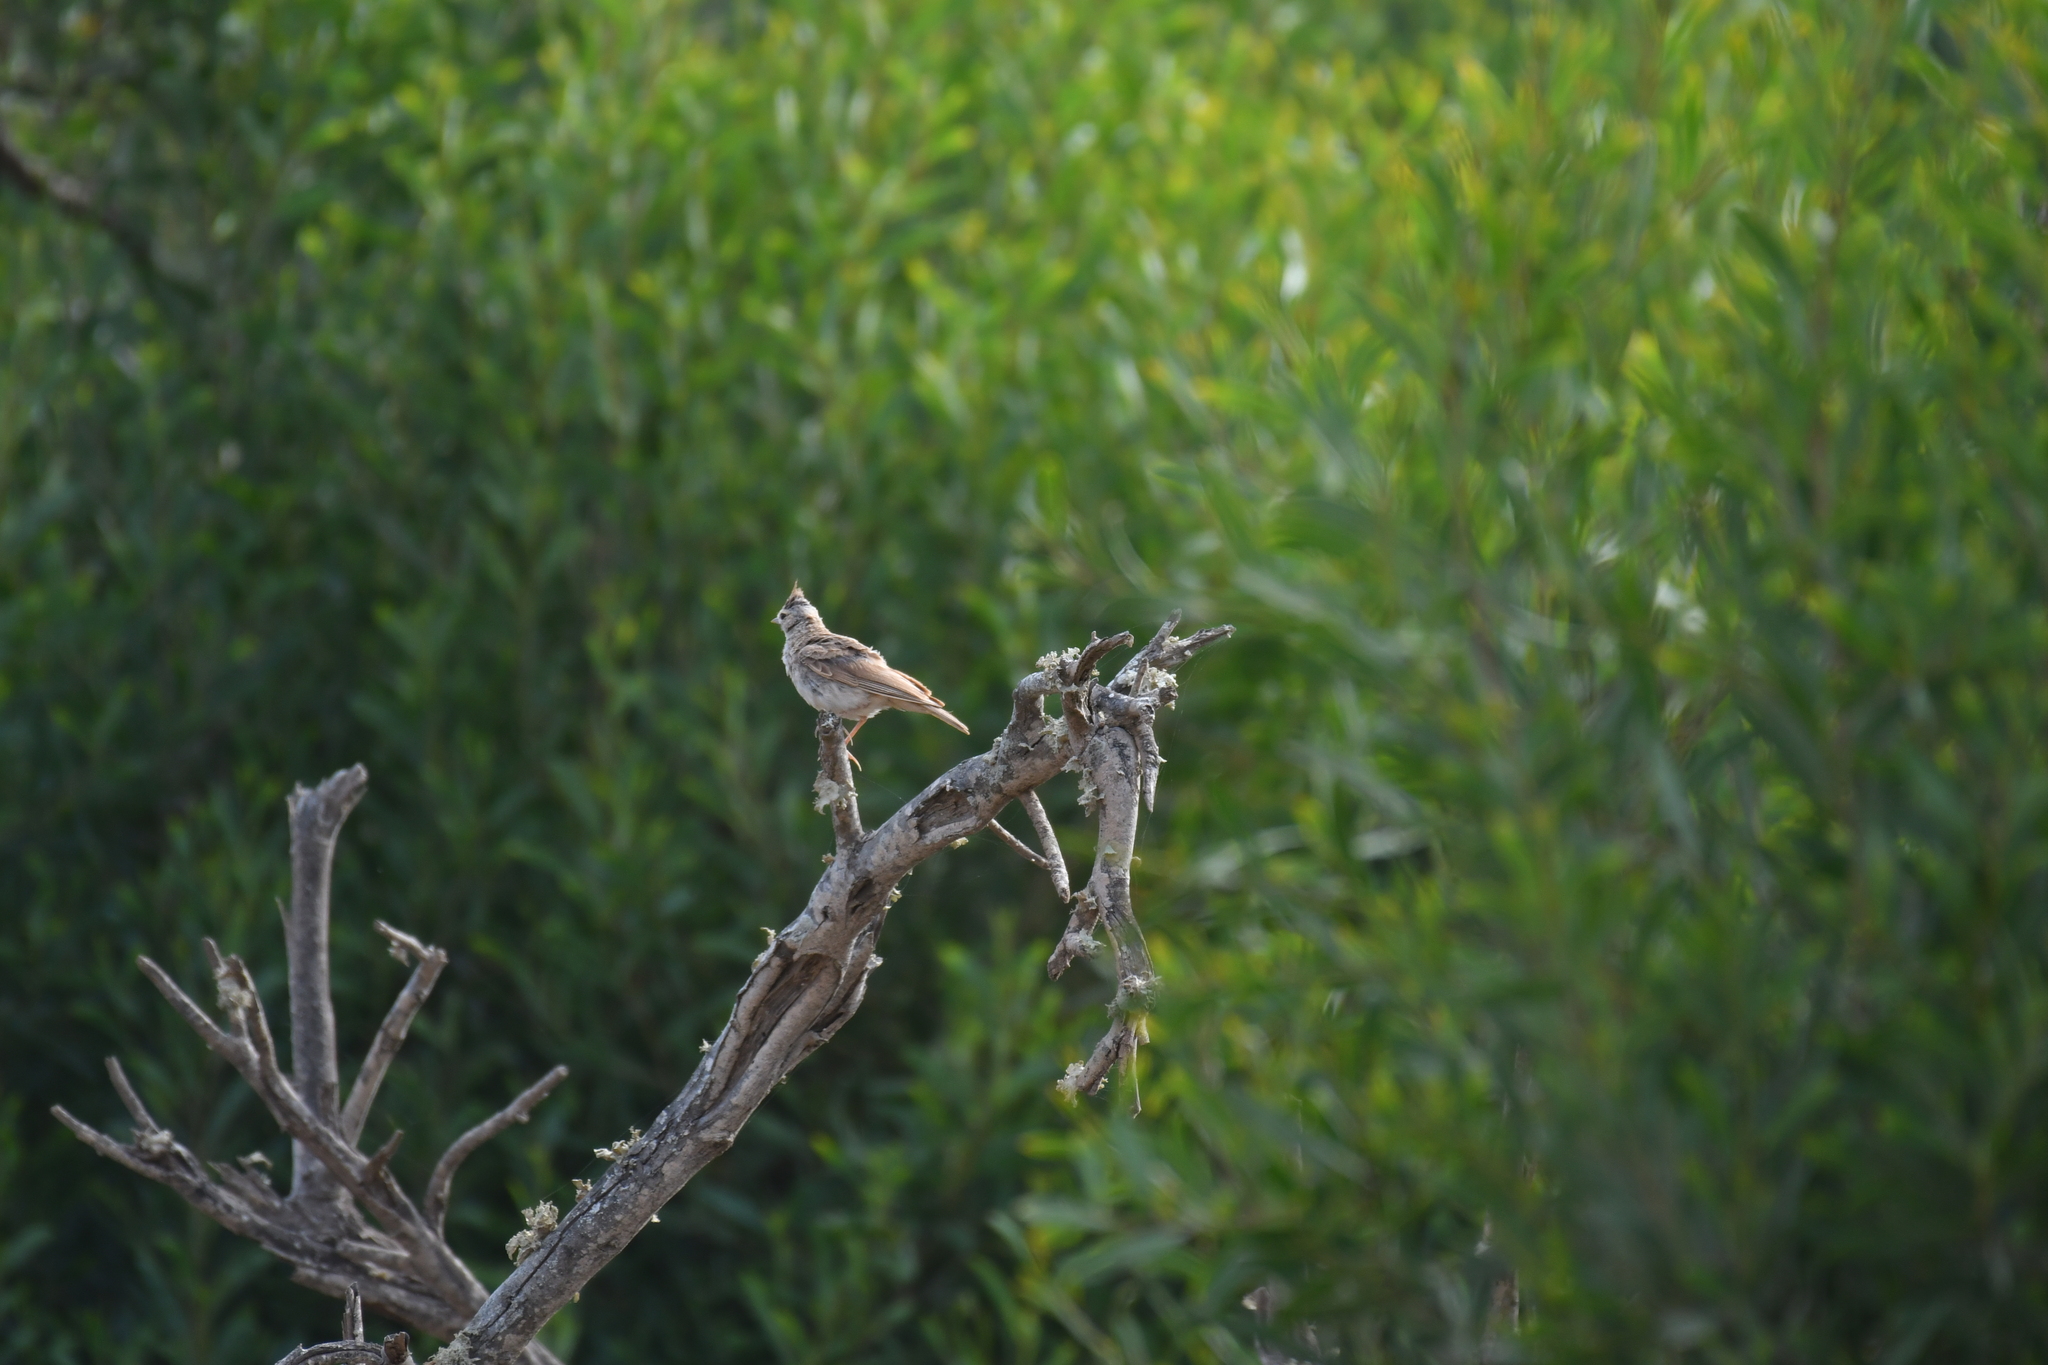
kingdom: Animalia
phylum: Chordata
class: Aves
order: Passeriformes
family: Alaudidae
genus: Galerida
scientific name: Galerida theklae
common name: Thekla lark
